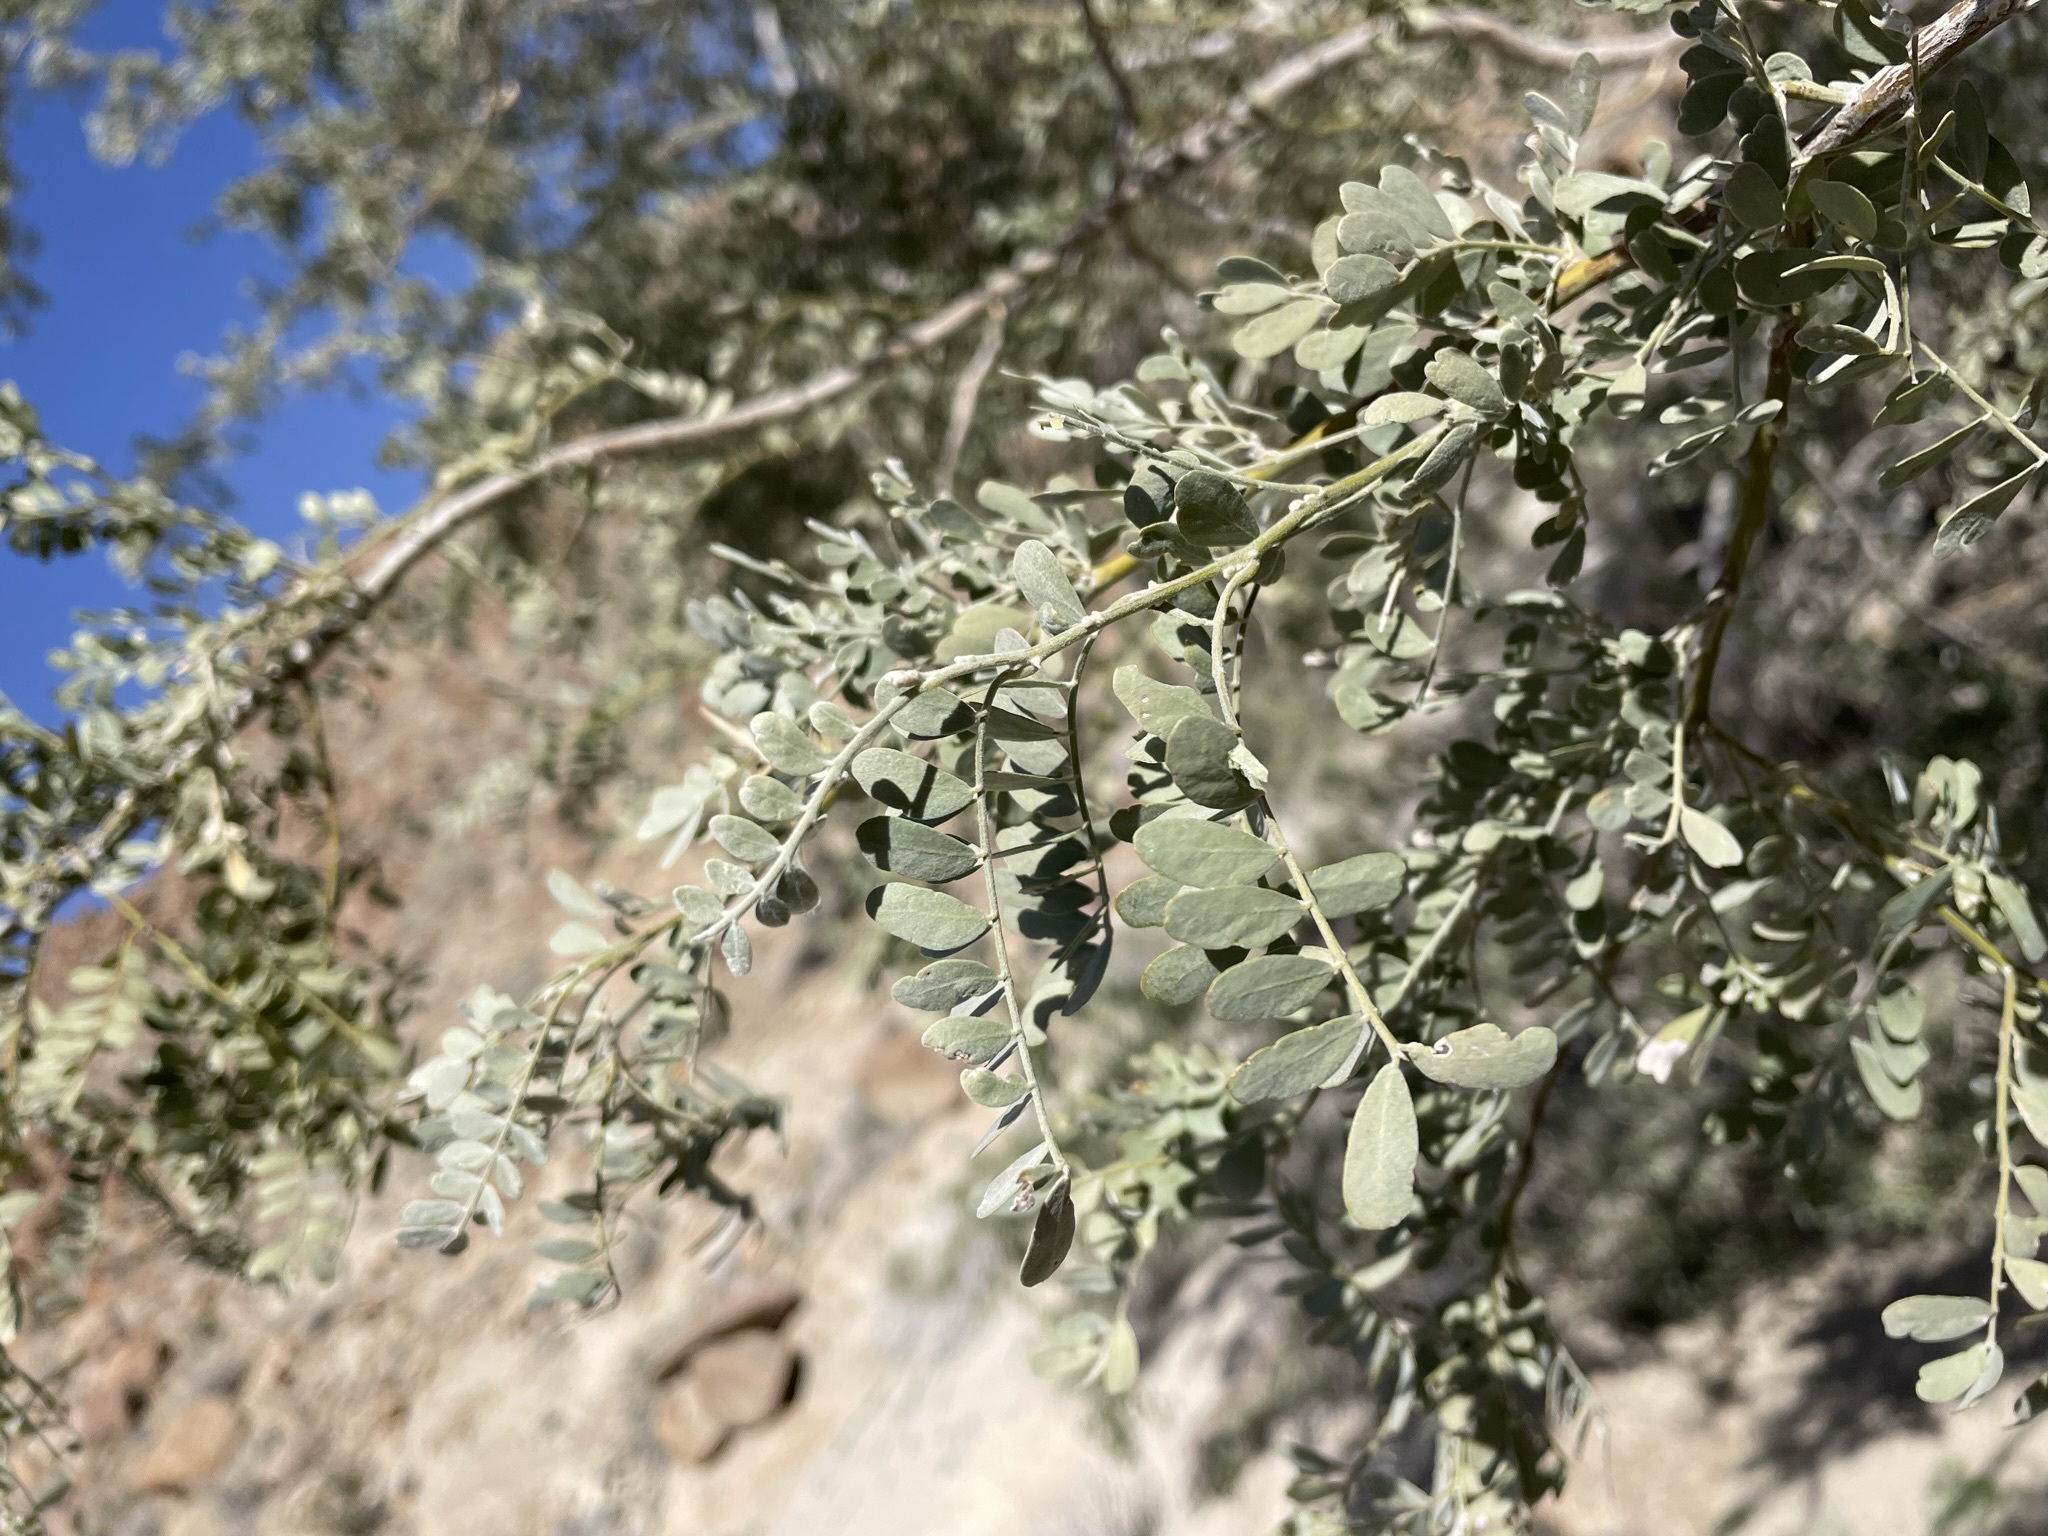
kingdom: Plantae
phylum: Tracheophyta
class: Magnoliopsida
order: Fabales
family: Fabaceae
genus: Olneya
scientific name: Olneya tesota
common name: Desert ironwood
